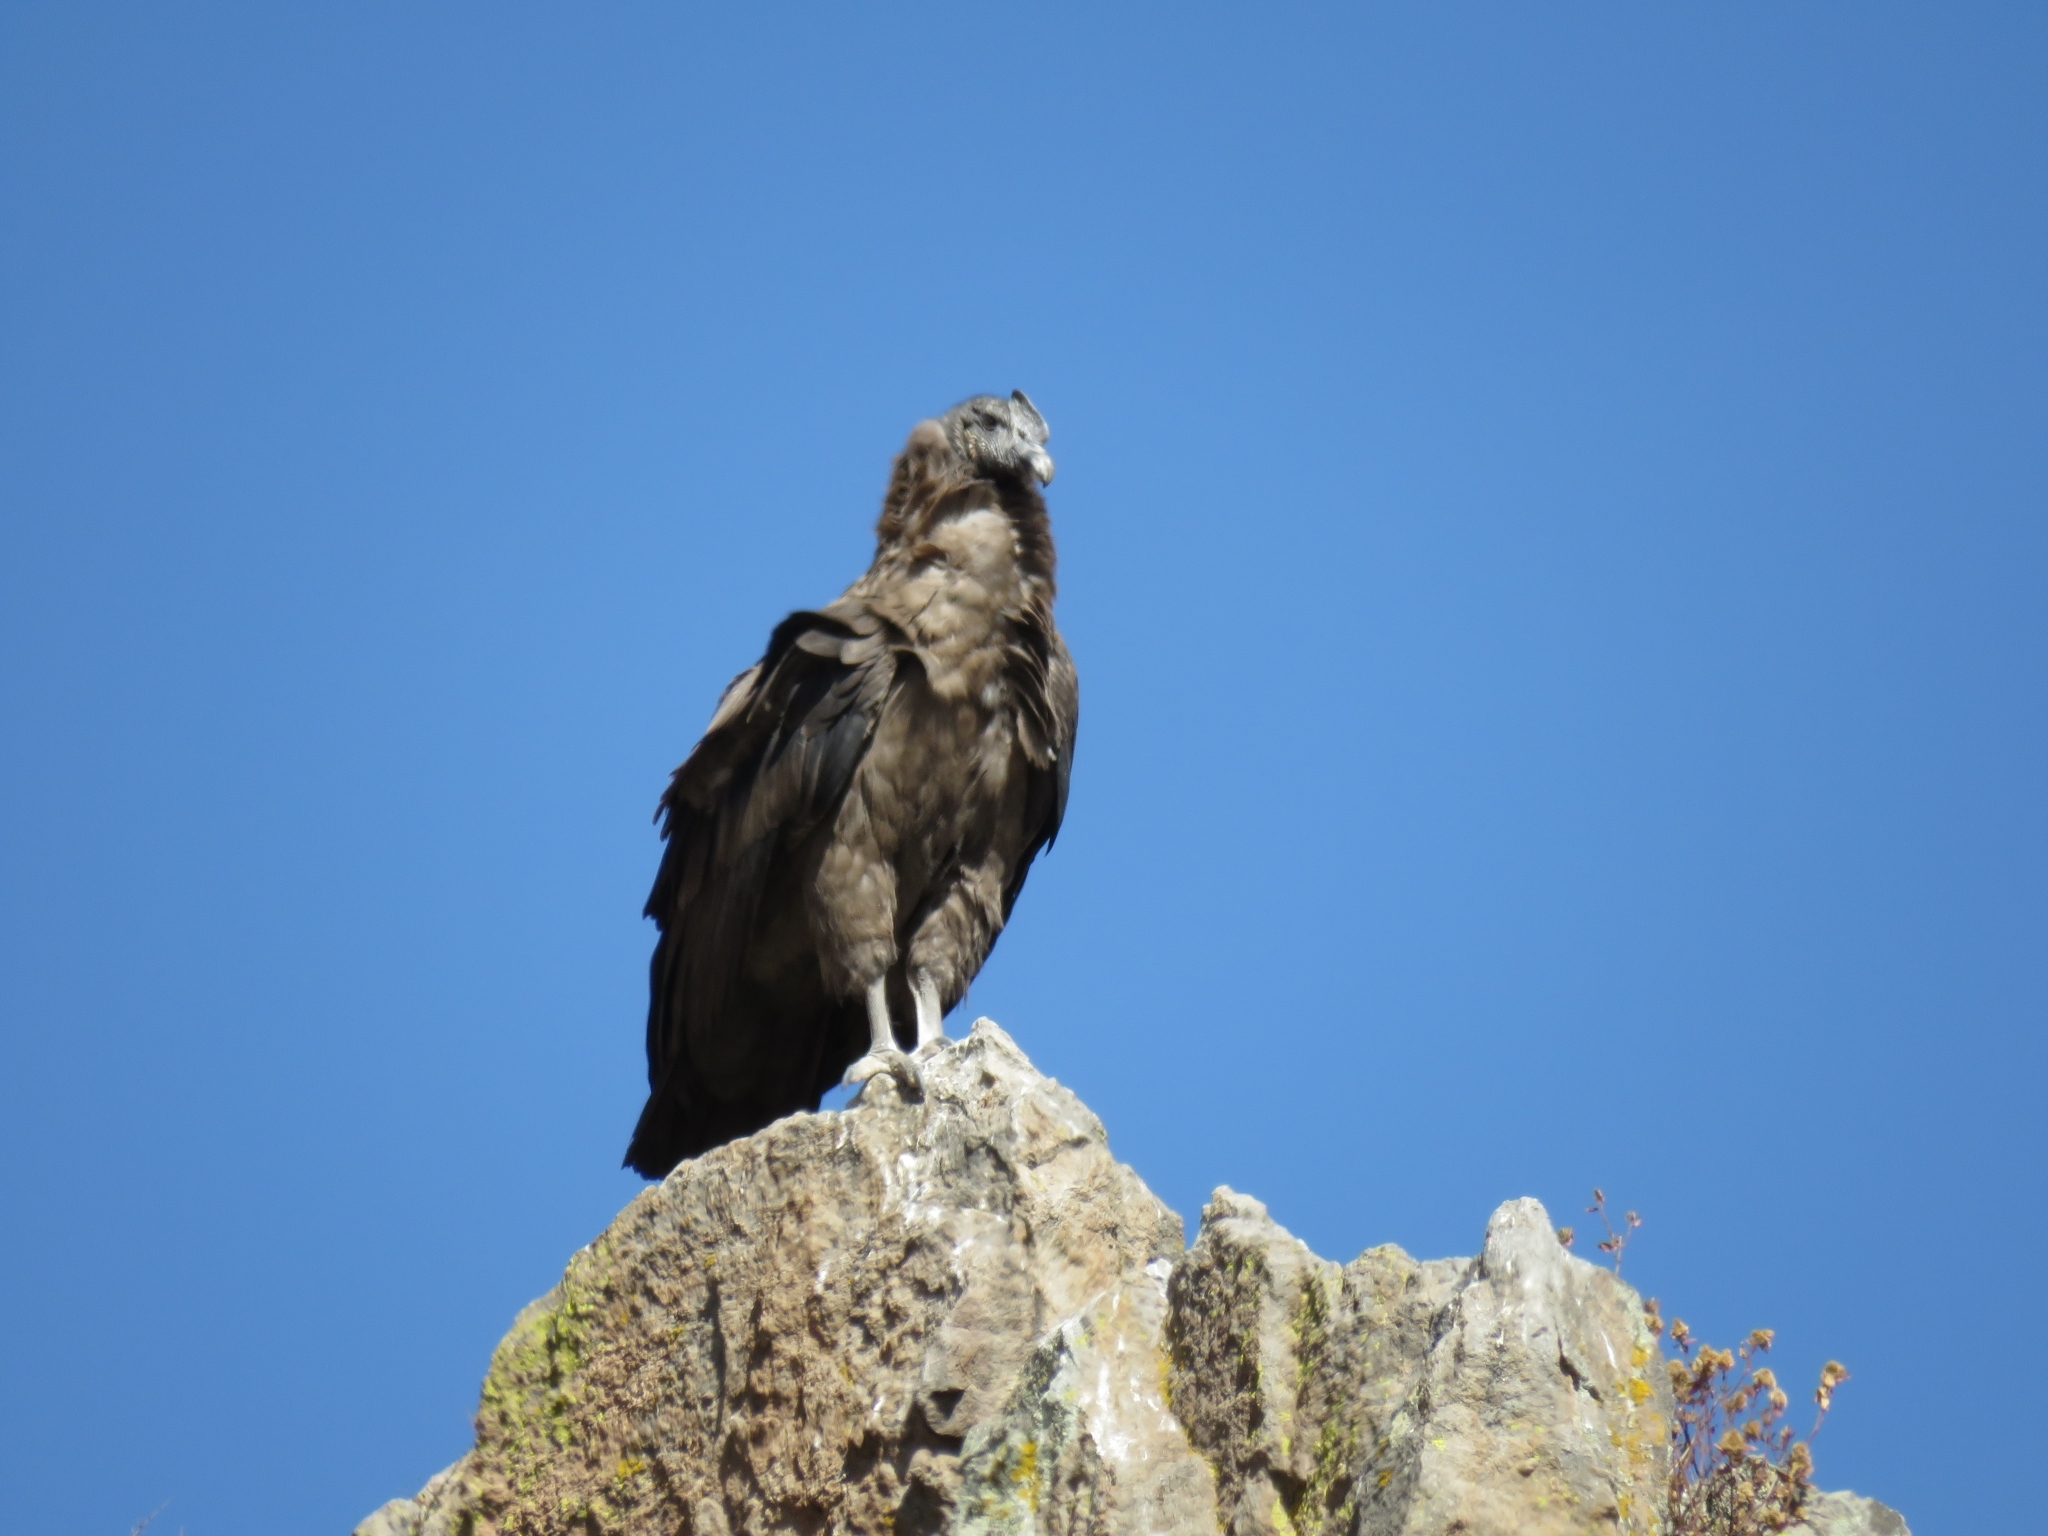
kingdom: Animalia
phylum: Chordata
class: Aves
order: Accipitriformes
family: Cathartidae
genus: Vultur
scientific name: Vultur gryphus
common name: Andean condor
